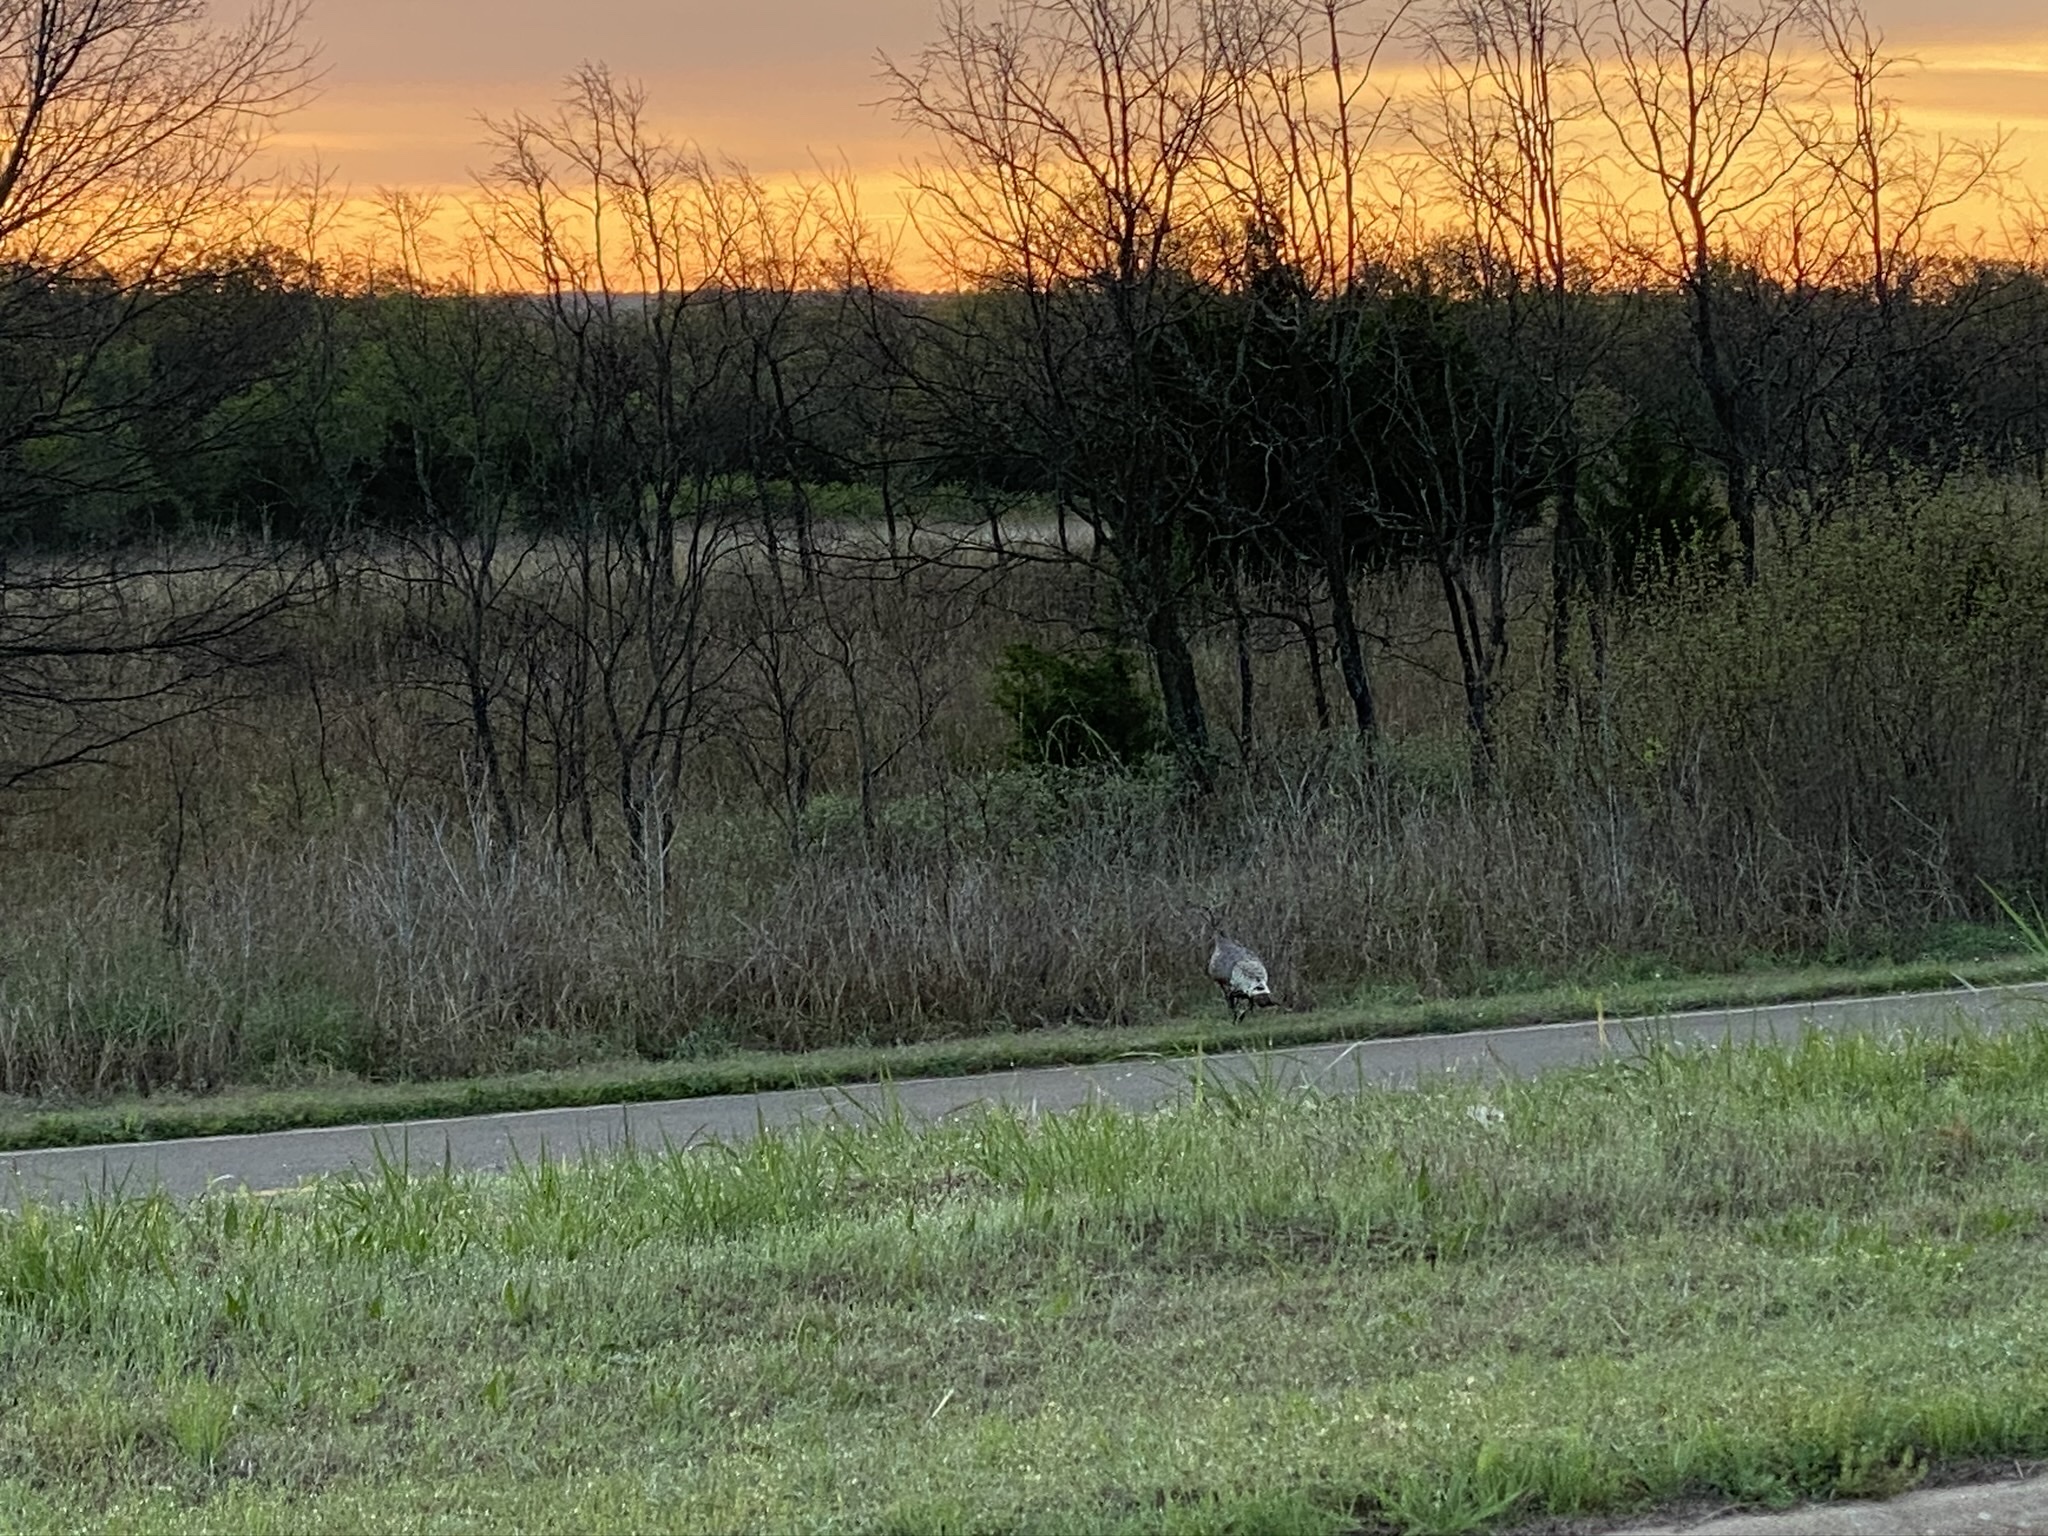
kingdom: Animalia
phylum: Chordata
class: Aves
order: Galliformes
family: Phasianidae
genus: Meleagris
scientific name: Meleagris gallopavo
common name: Wild turkey
